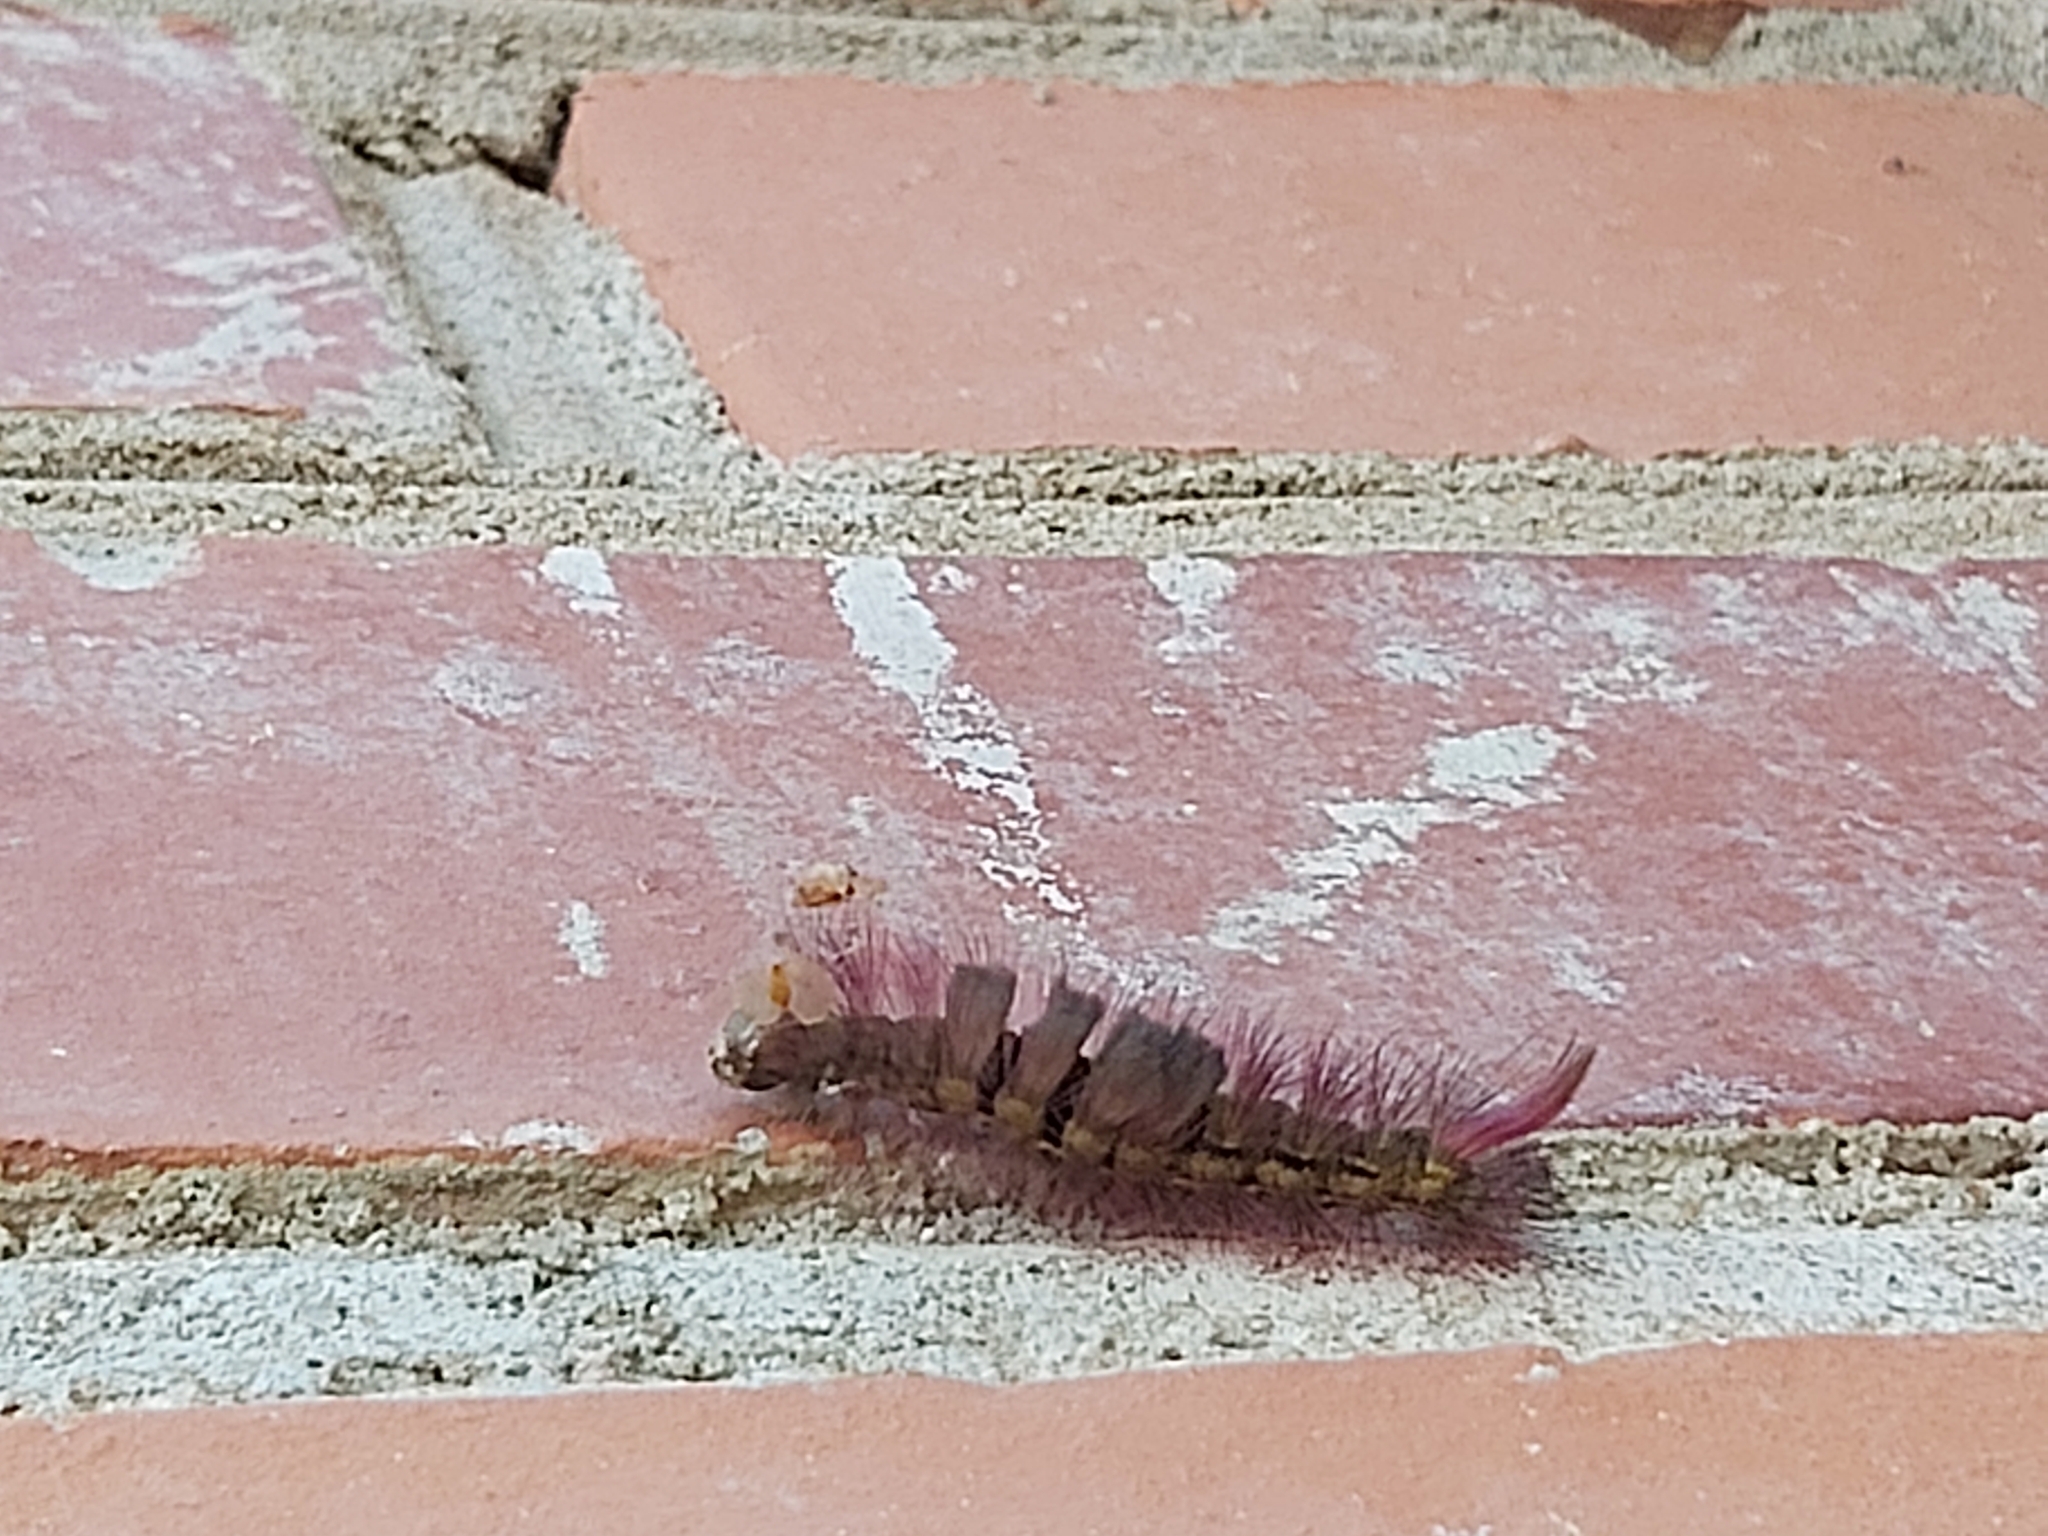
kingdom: Animalia
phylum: Arthropoda
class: Insecta
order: Lepidoptera
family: Erebidae
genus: Calliteara
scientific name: Calliteara pudibunda
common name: Pale tussock
